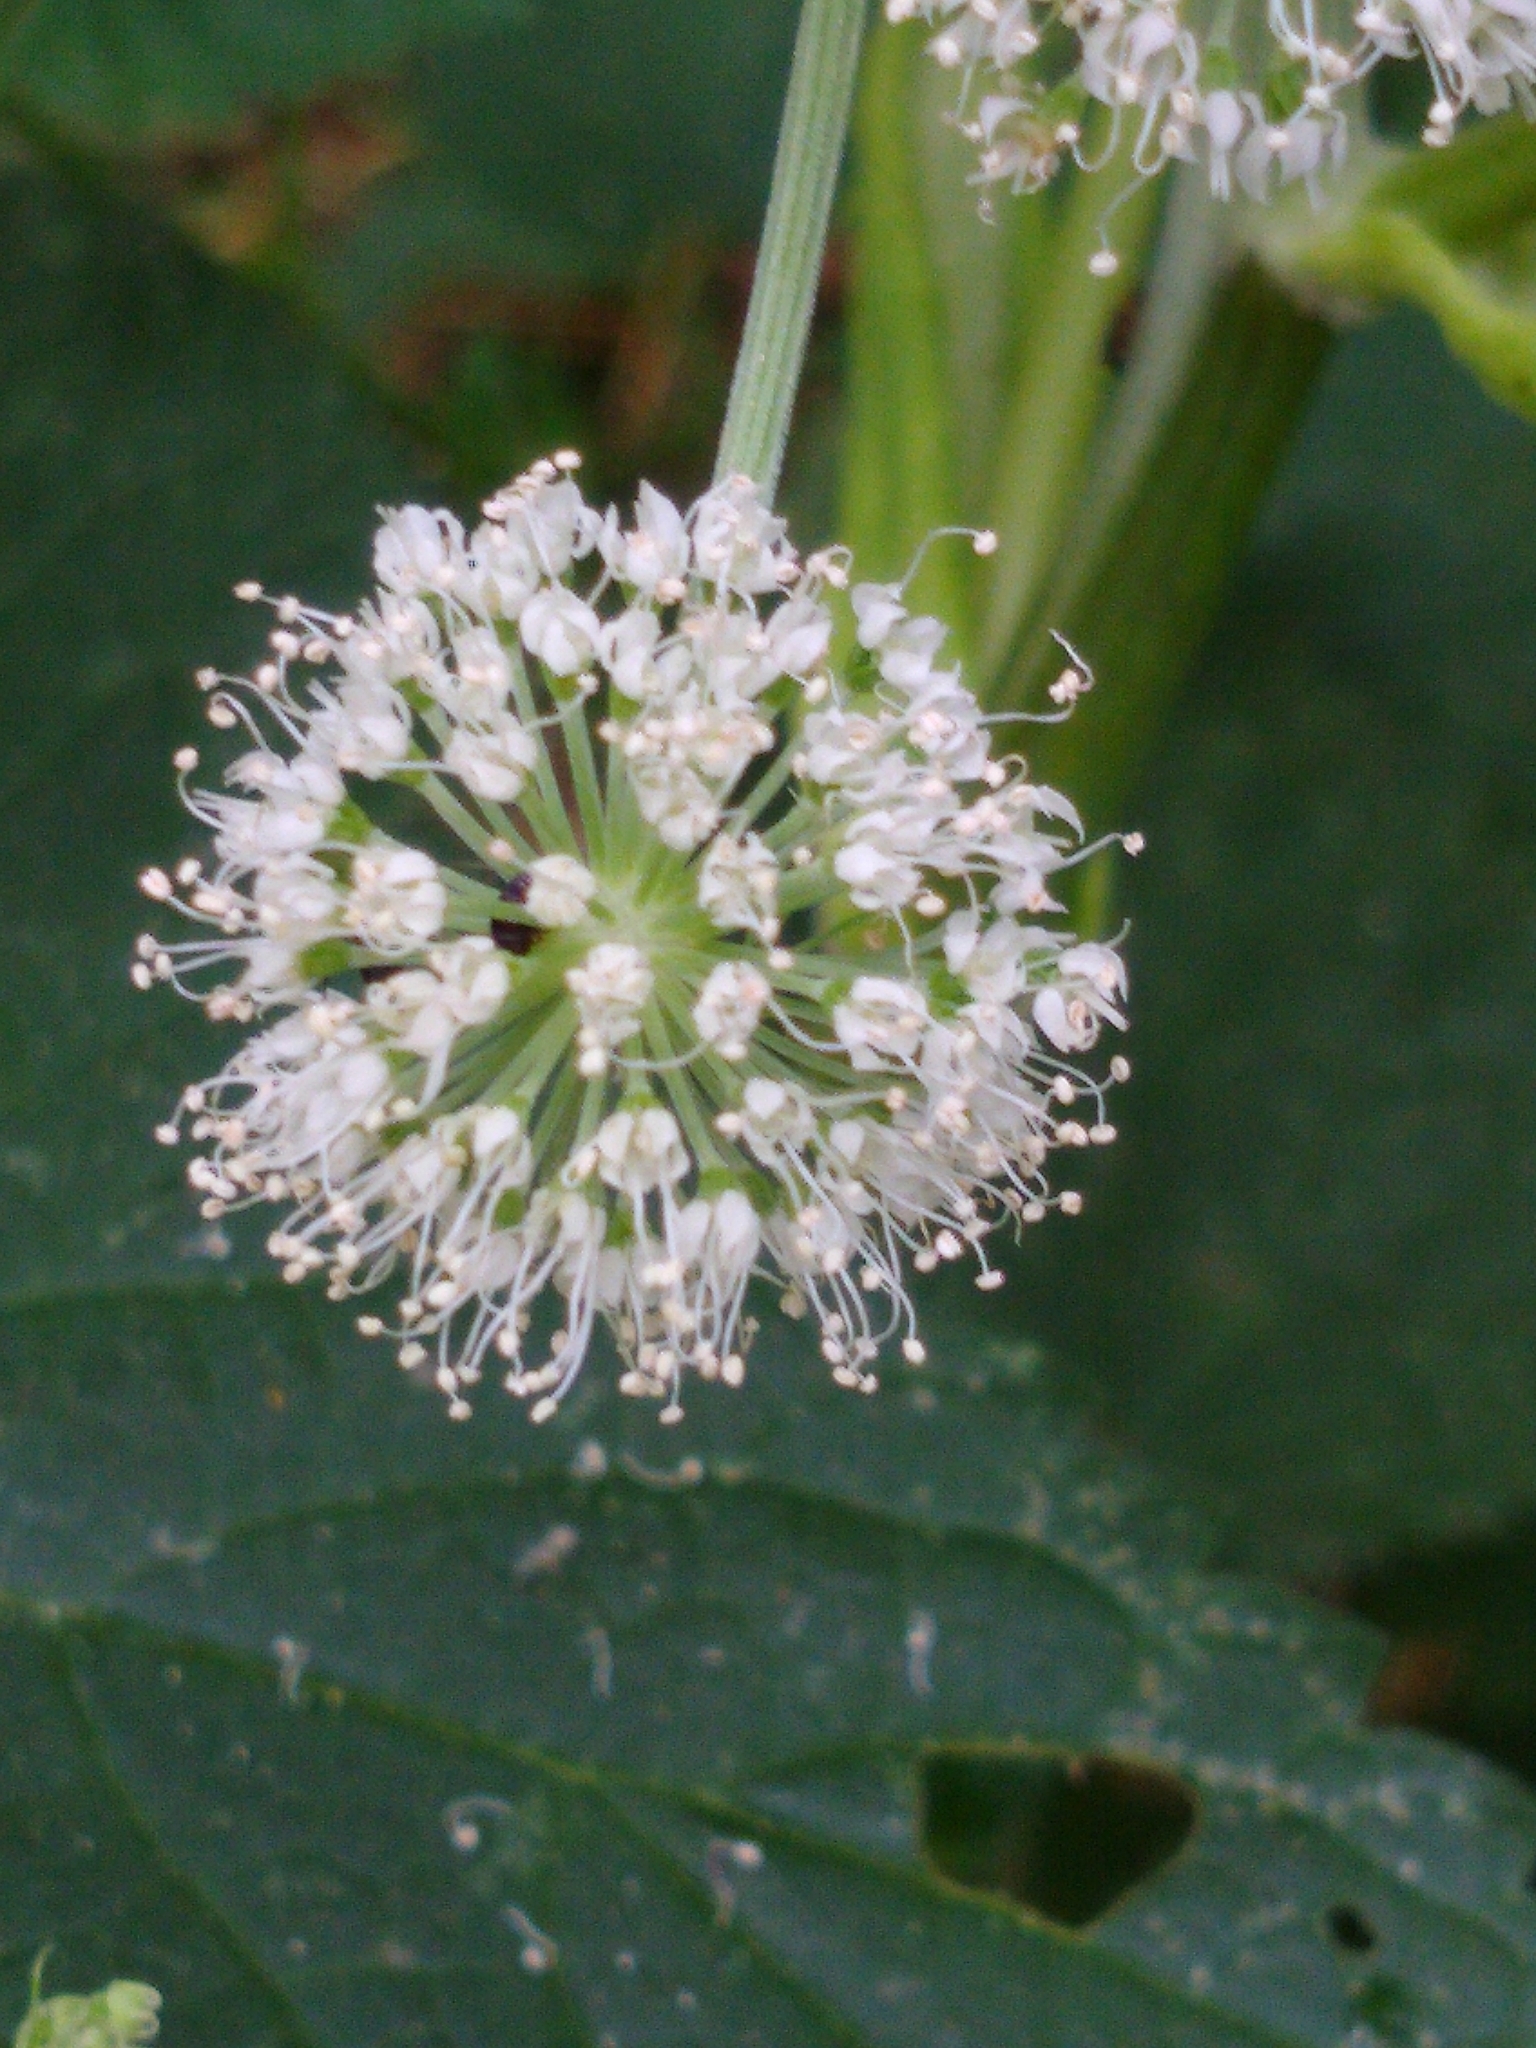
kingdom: Plantae
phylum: Tracheophyta
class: Magnoliopsida
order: Apiales
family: Apiaceae
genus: Angelica
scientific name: Angelica sylvestris
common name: Wild angelica
